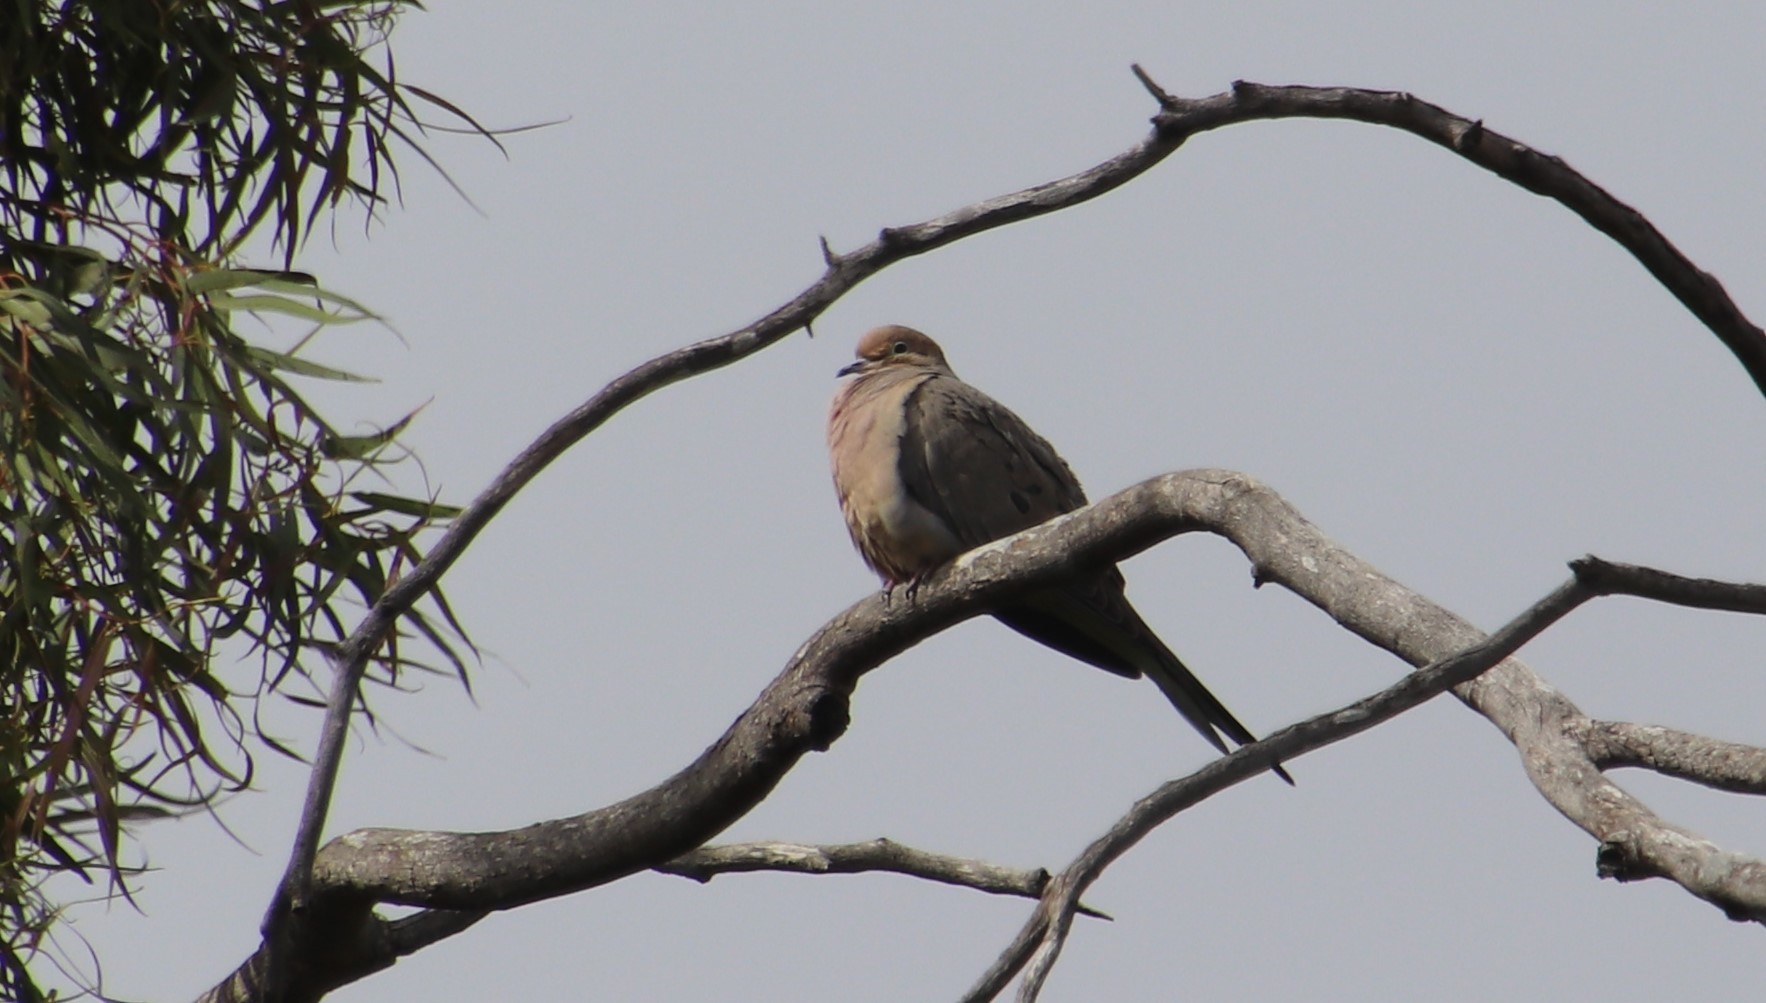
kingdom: Animalia
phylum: Chordata
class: Aves
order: Columbiformes
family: Columbidae
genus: Zenaida
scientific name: Zenaida macroura
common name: Mourning dove
